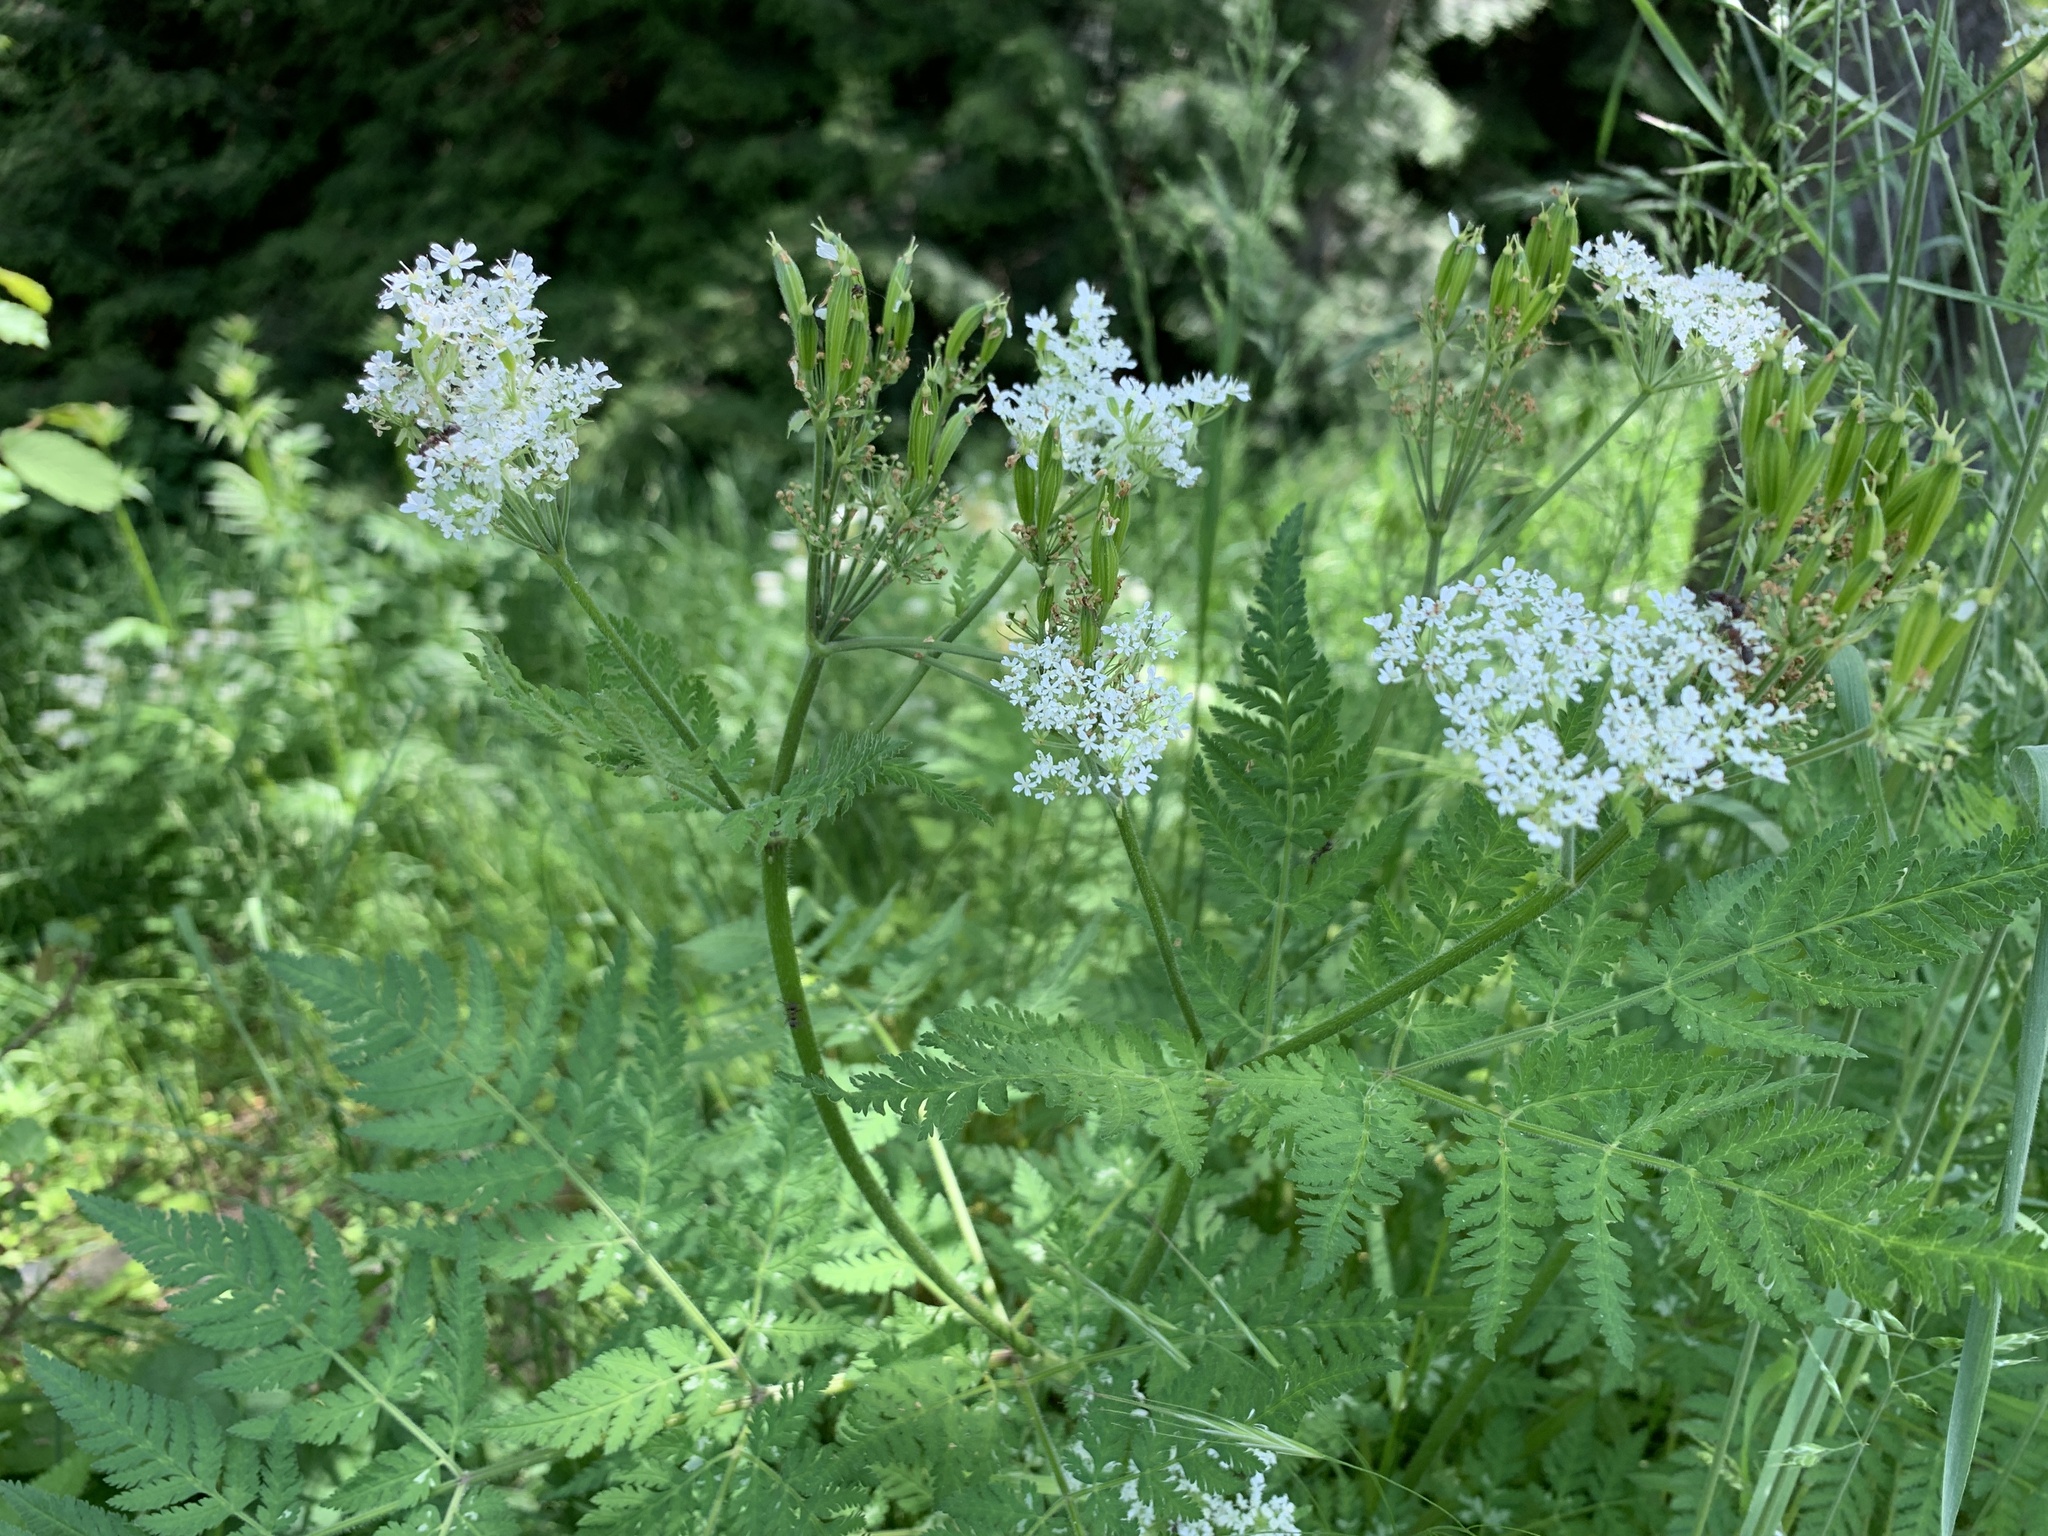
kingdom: Plantae
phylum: Tracheophyta
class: Magnoliopsida
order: Apiales
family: Apiaceae
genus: Myrrhis
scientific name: Myrrhis odorata
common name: Sweet cicely
